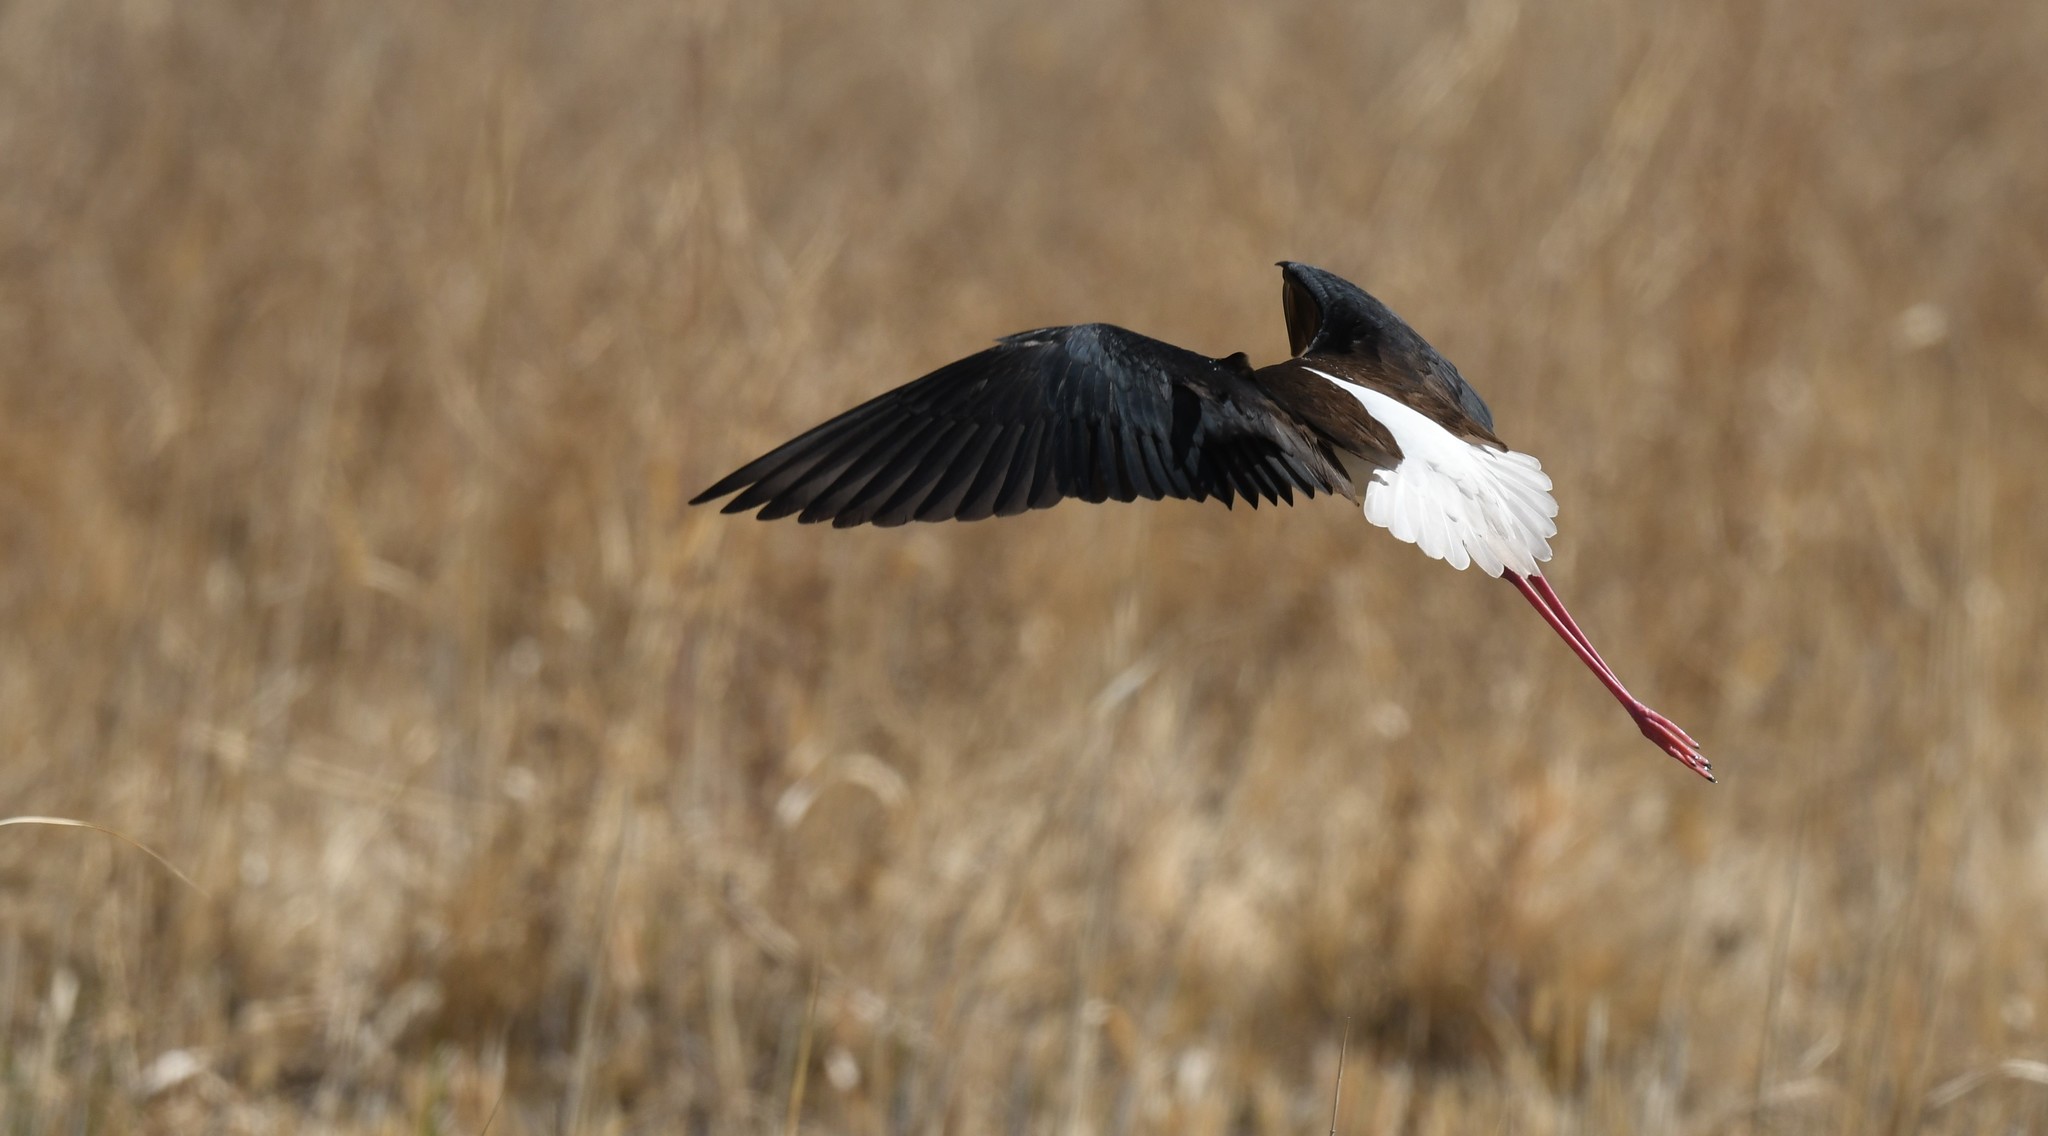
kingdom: Animalia
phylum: Chordata
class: Aves
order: Charadriiformes
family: Recurvirostridae
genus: Himantopus
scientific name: Himantopus mexicanus
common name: Black-necked stilt
